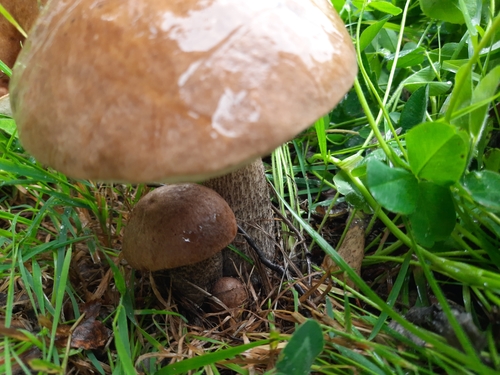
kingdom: Fungi
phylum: Basidiomycota
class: Agaricomycetes
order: Boletales
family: Boletaceae
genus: Leccinum
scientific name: Leccinum scabrum
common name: Blushing bolete
